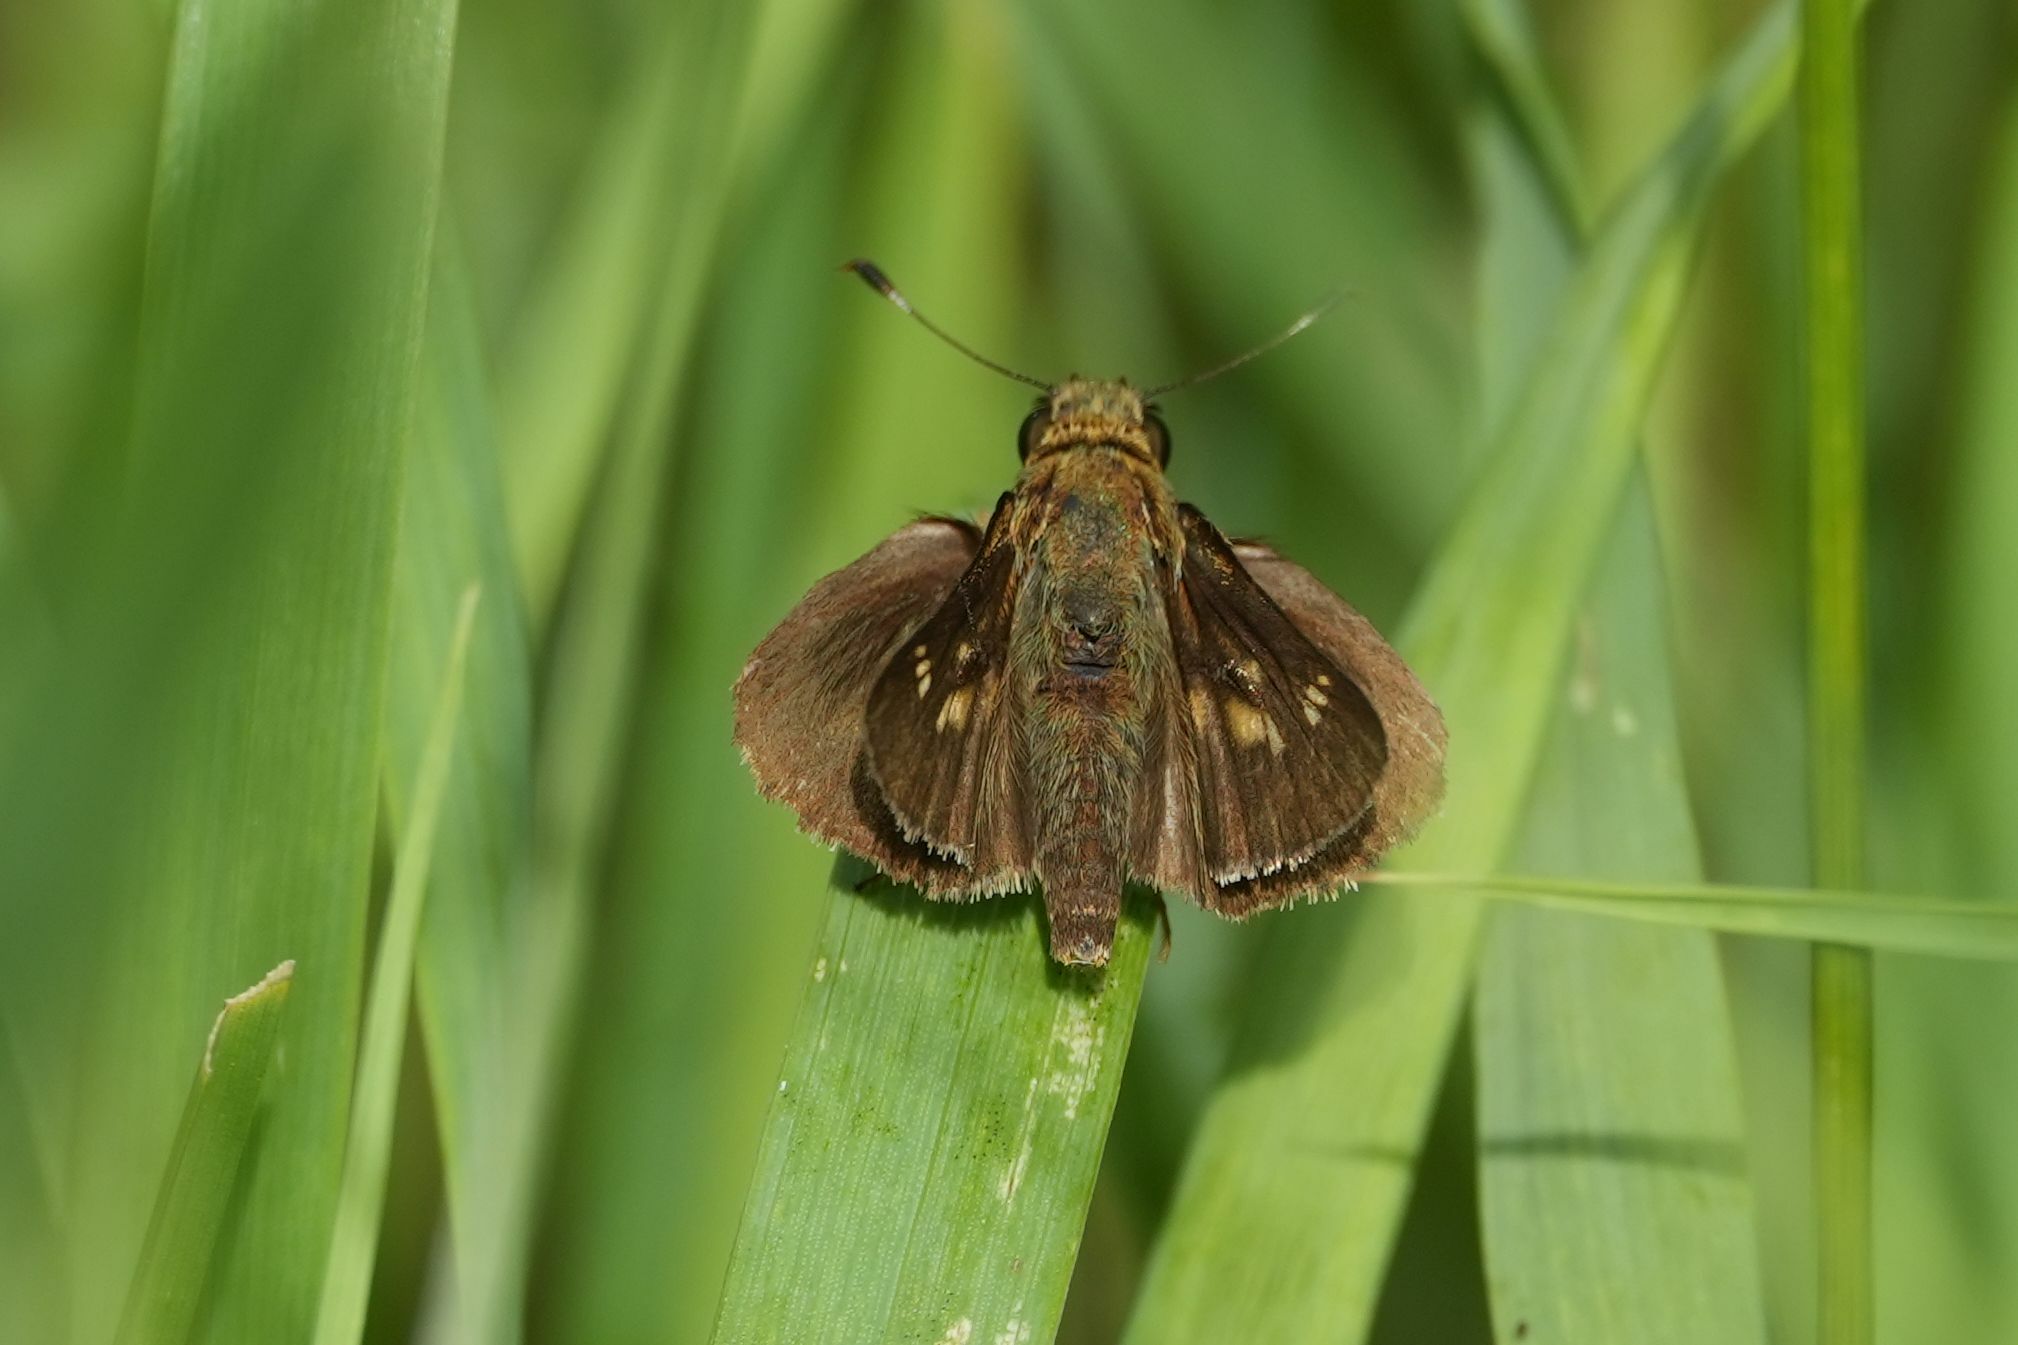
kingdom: Animalia
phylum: Arthropoda
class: Insecta
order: Lepidoptera
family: Hesperiidae
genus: Vernia
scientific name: Vernia verna
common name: Little glassywing
